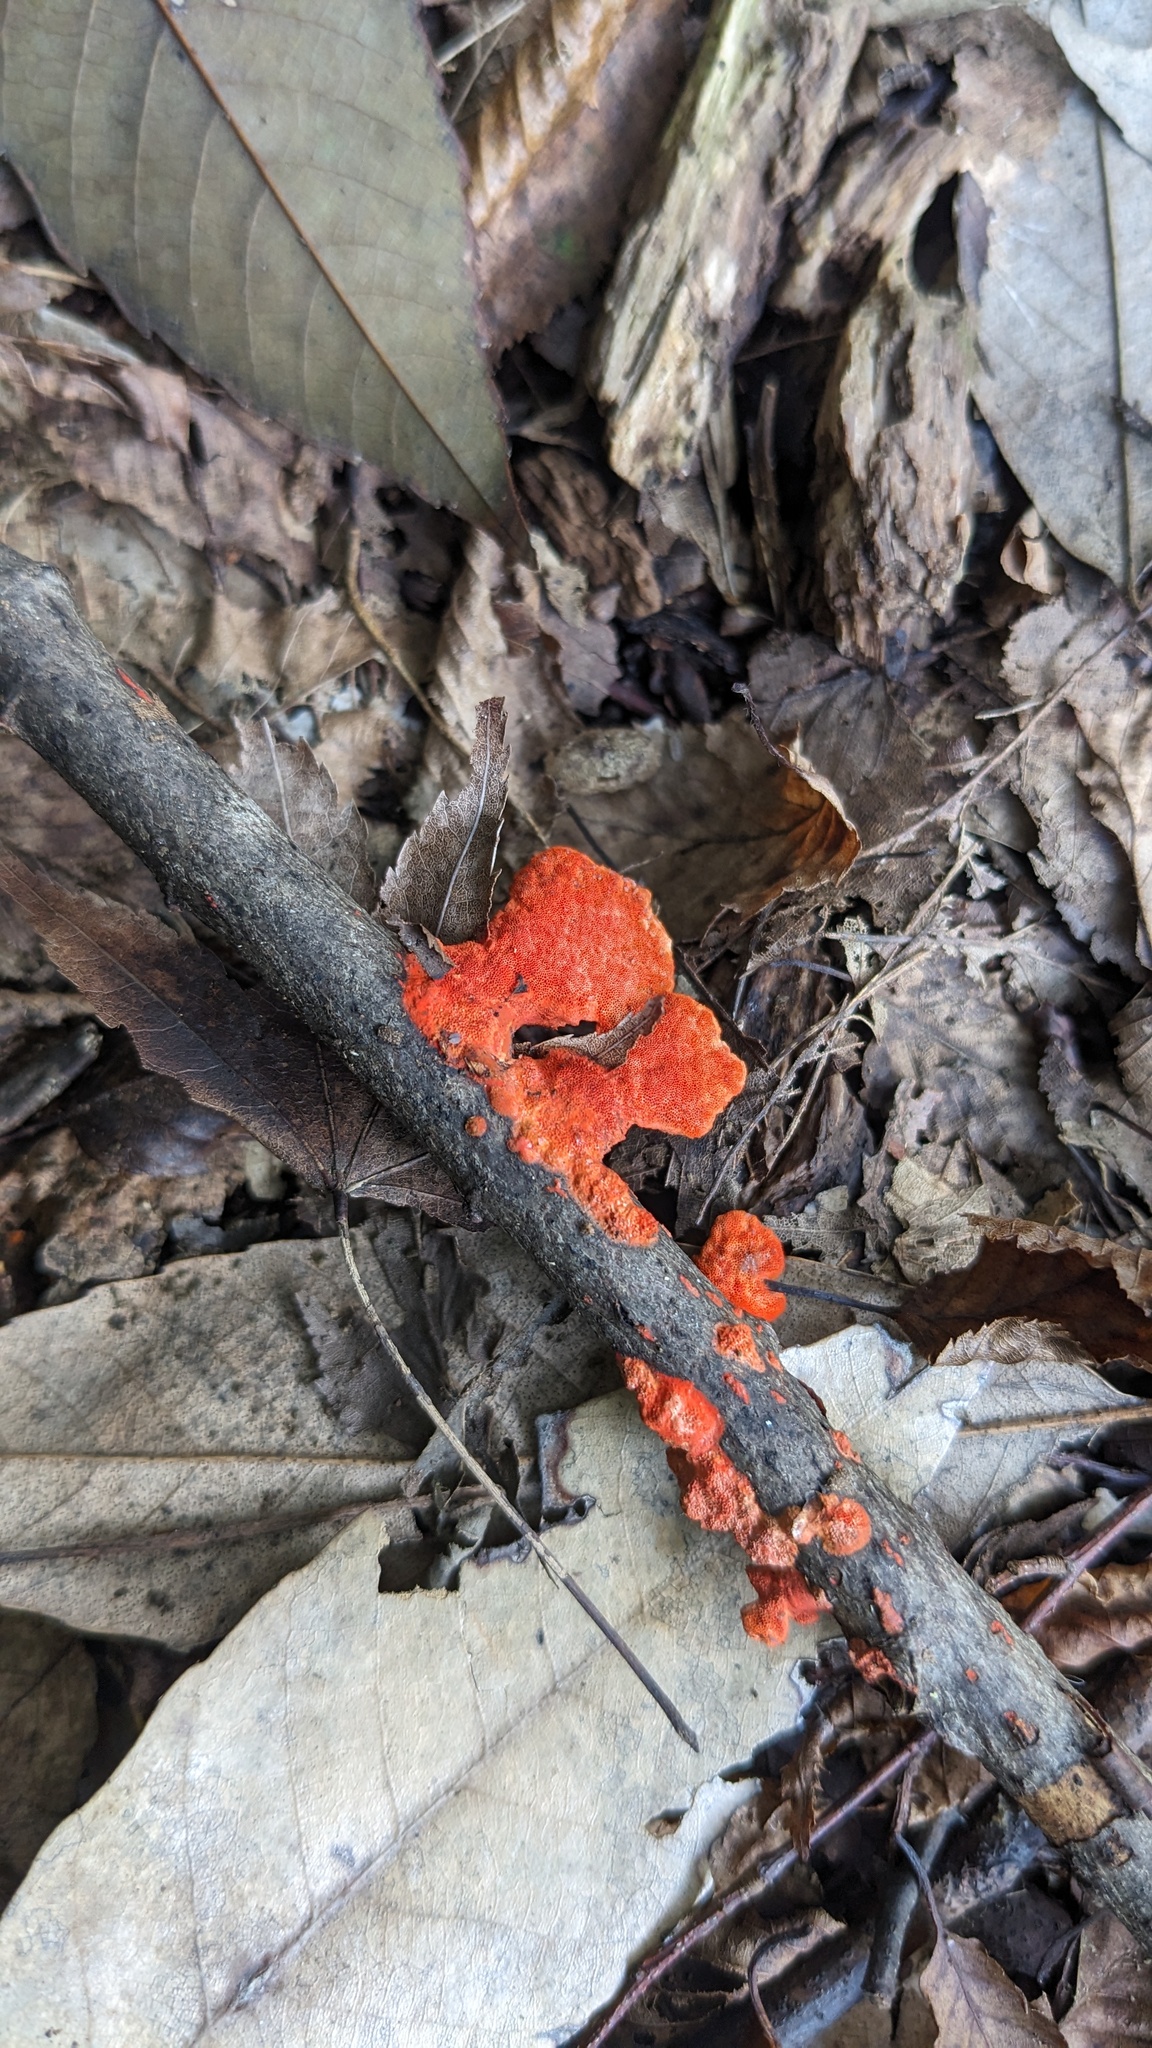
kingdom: Fungi
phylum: Basidiomycota
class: Agaricomycetes
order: Polyporales
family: Polyporaceae
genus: Trametes
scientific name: Trametes coccinea
